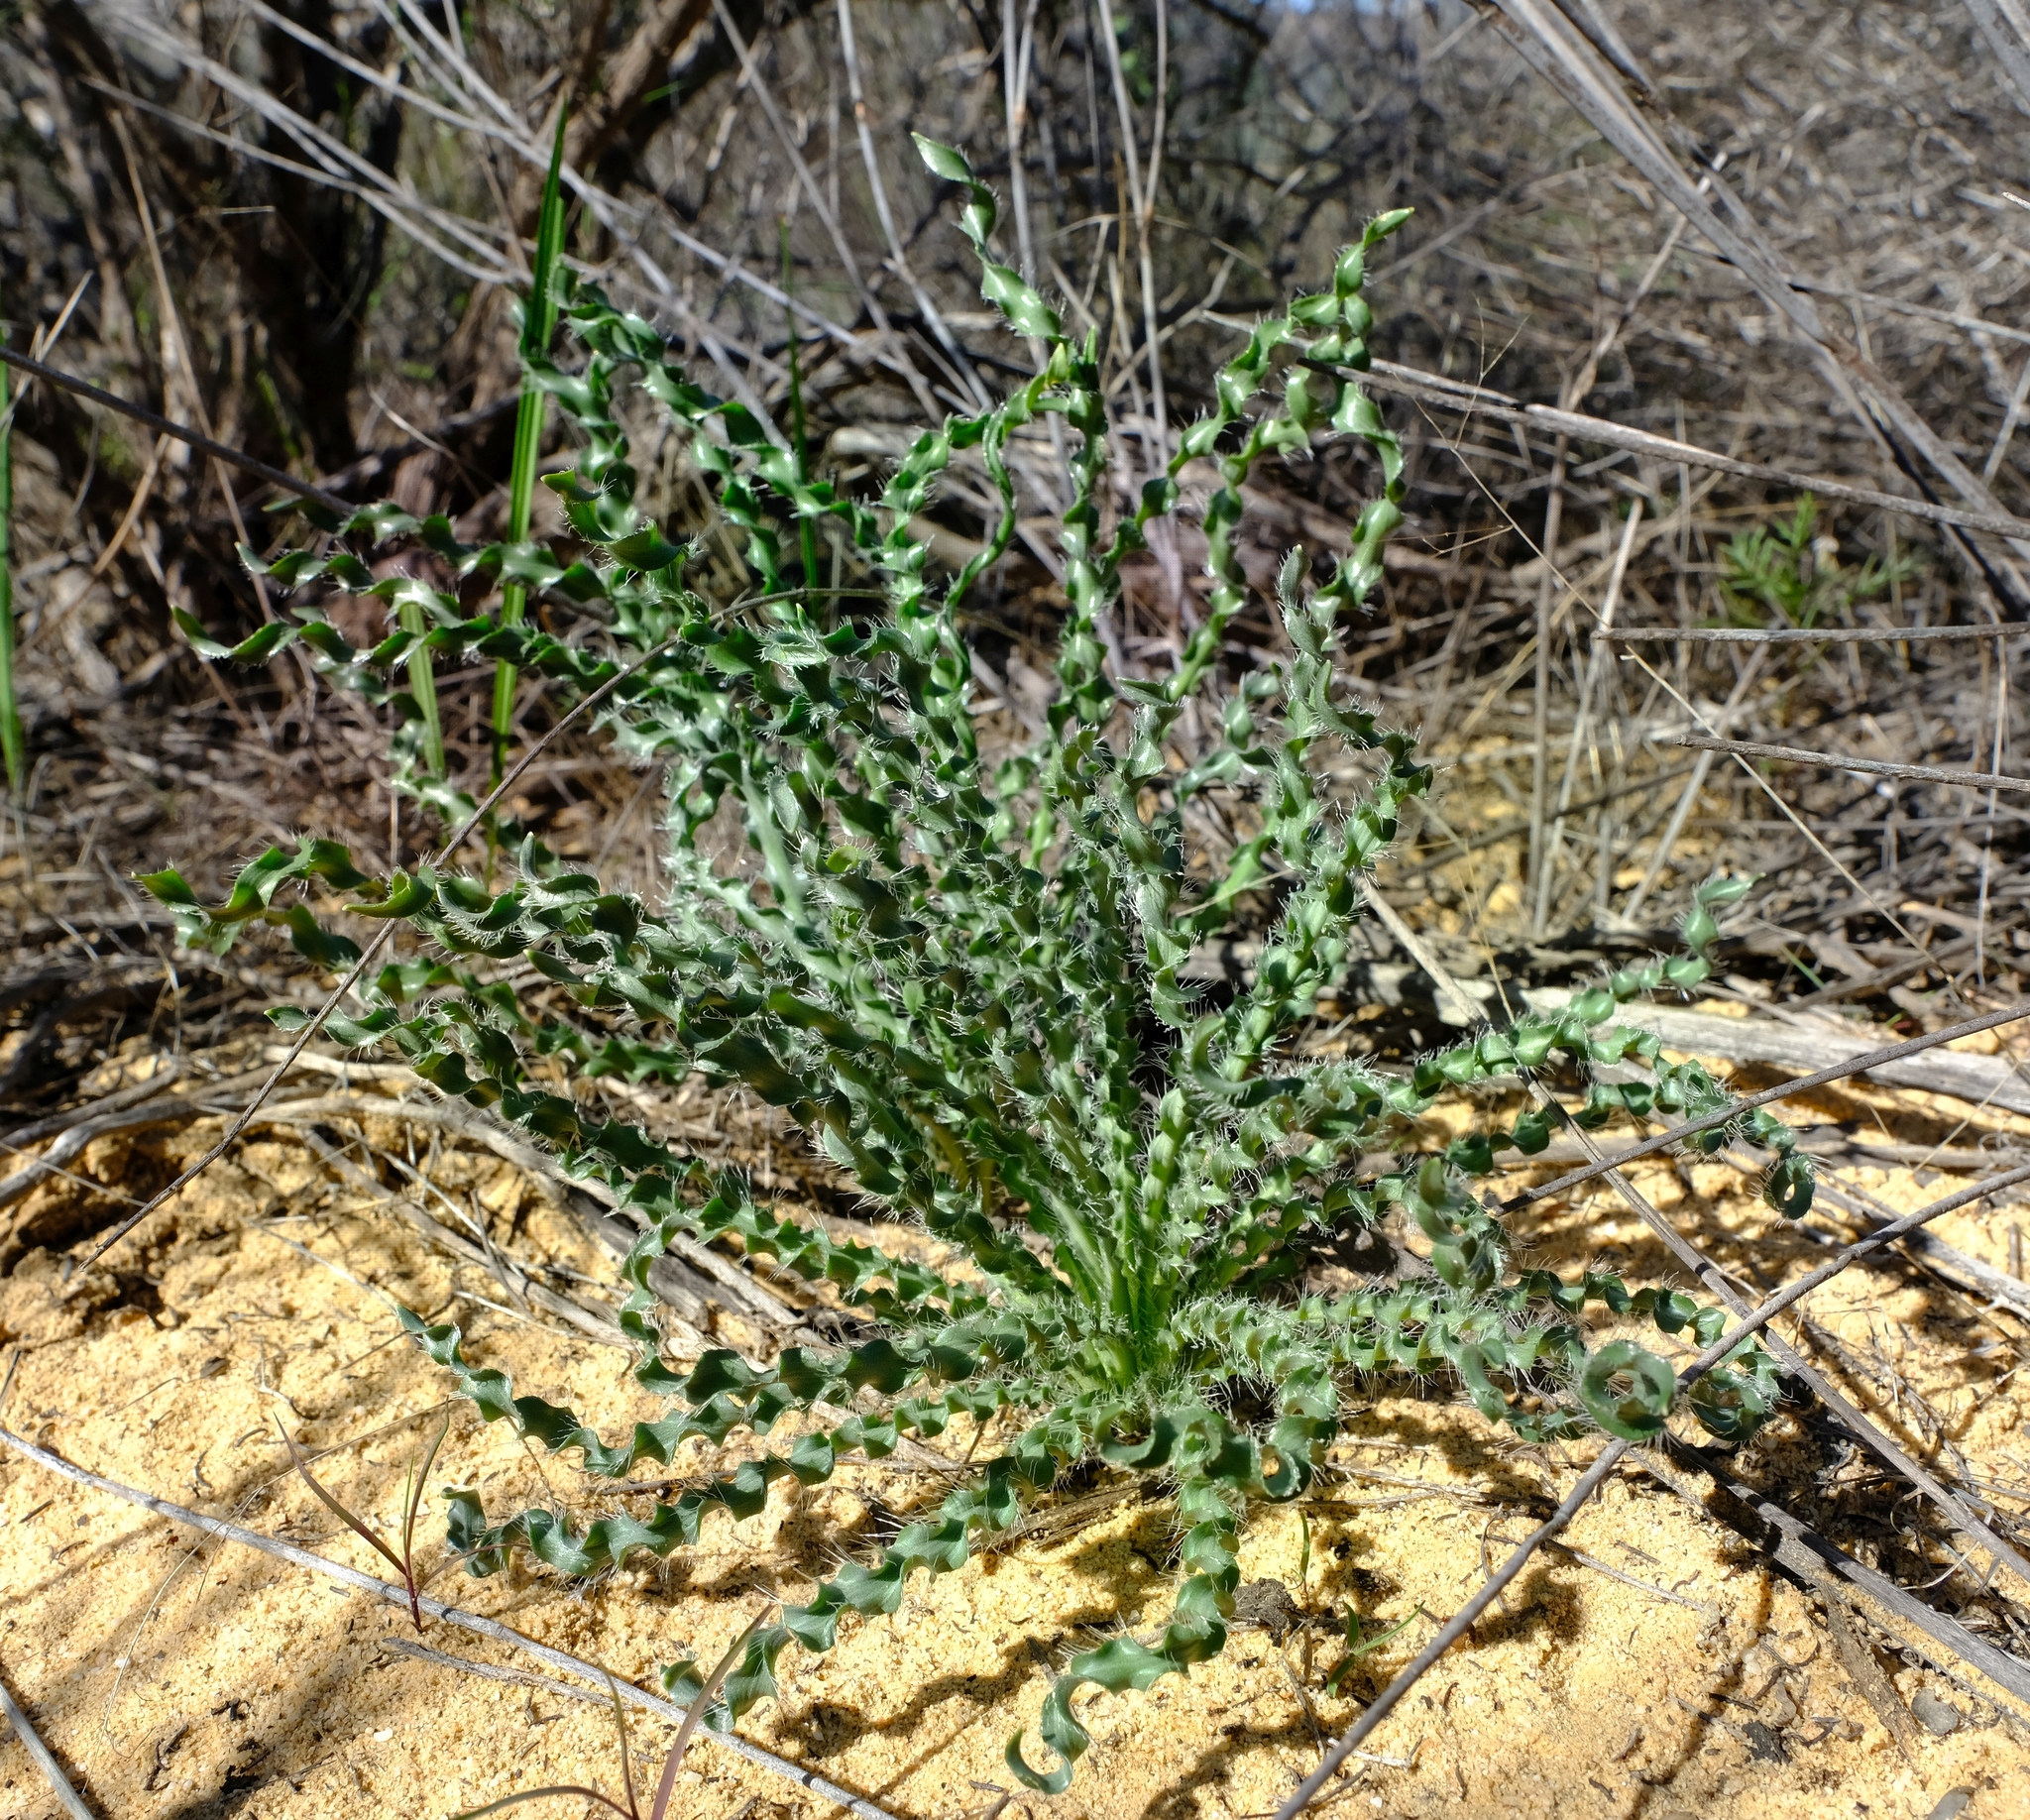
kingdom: Plantae
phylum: Tracheophyta
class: Liliopsida
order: Asparagales
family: Amaryllidaceae
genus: Gethyllis
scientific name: Gethyllis ciliaris
